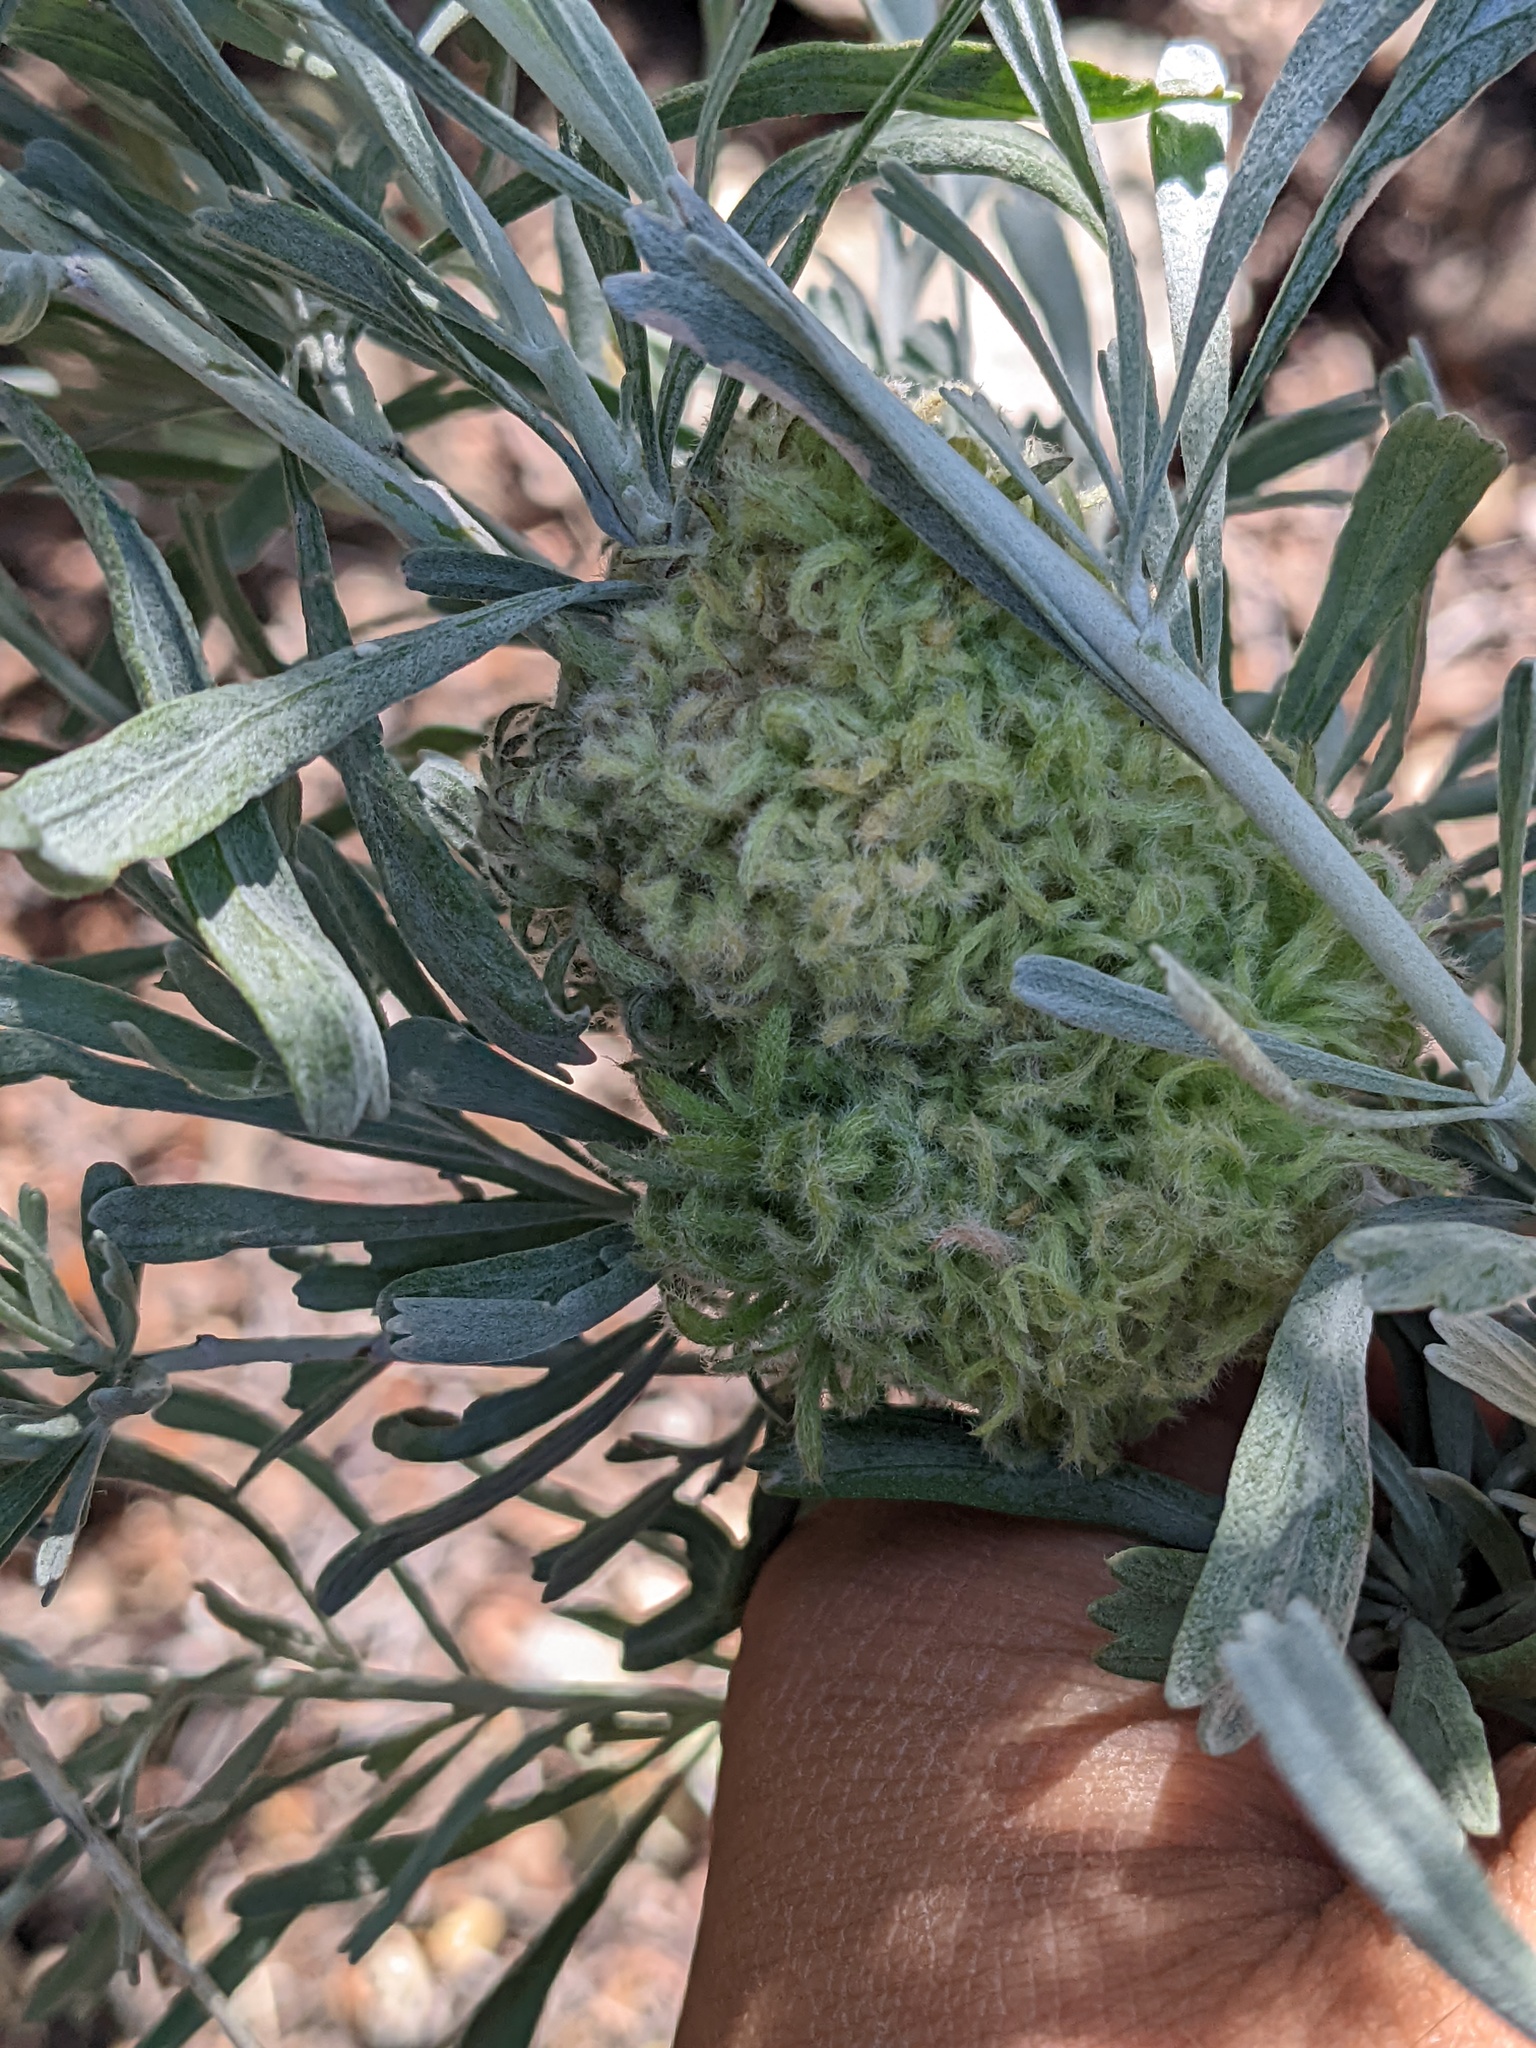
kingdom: Animalia
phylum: Arthropoda
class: Insecta
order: Diptera
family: Cecidomyiidae
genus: Rhopalomyia
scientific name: Rhopalomyia medusa
